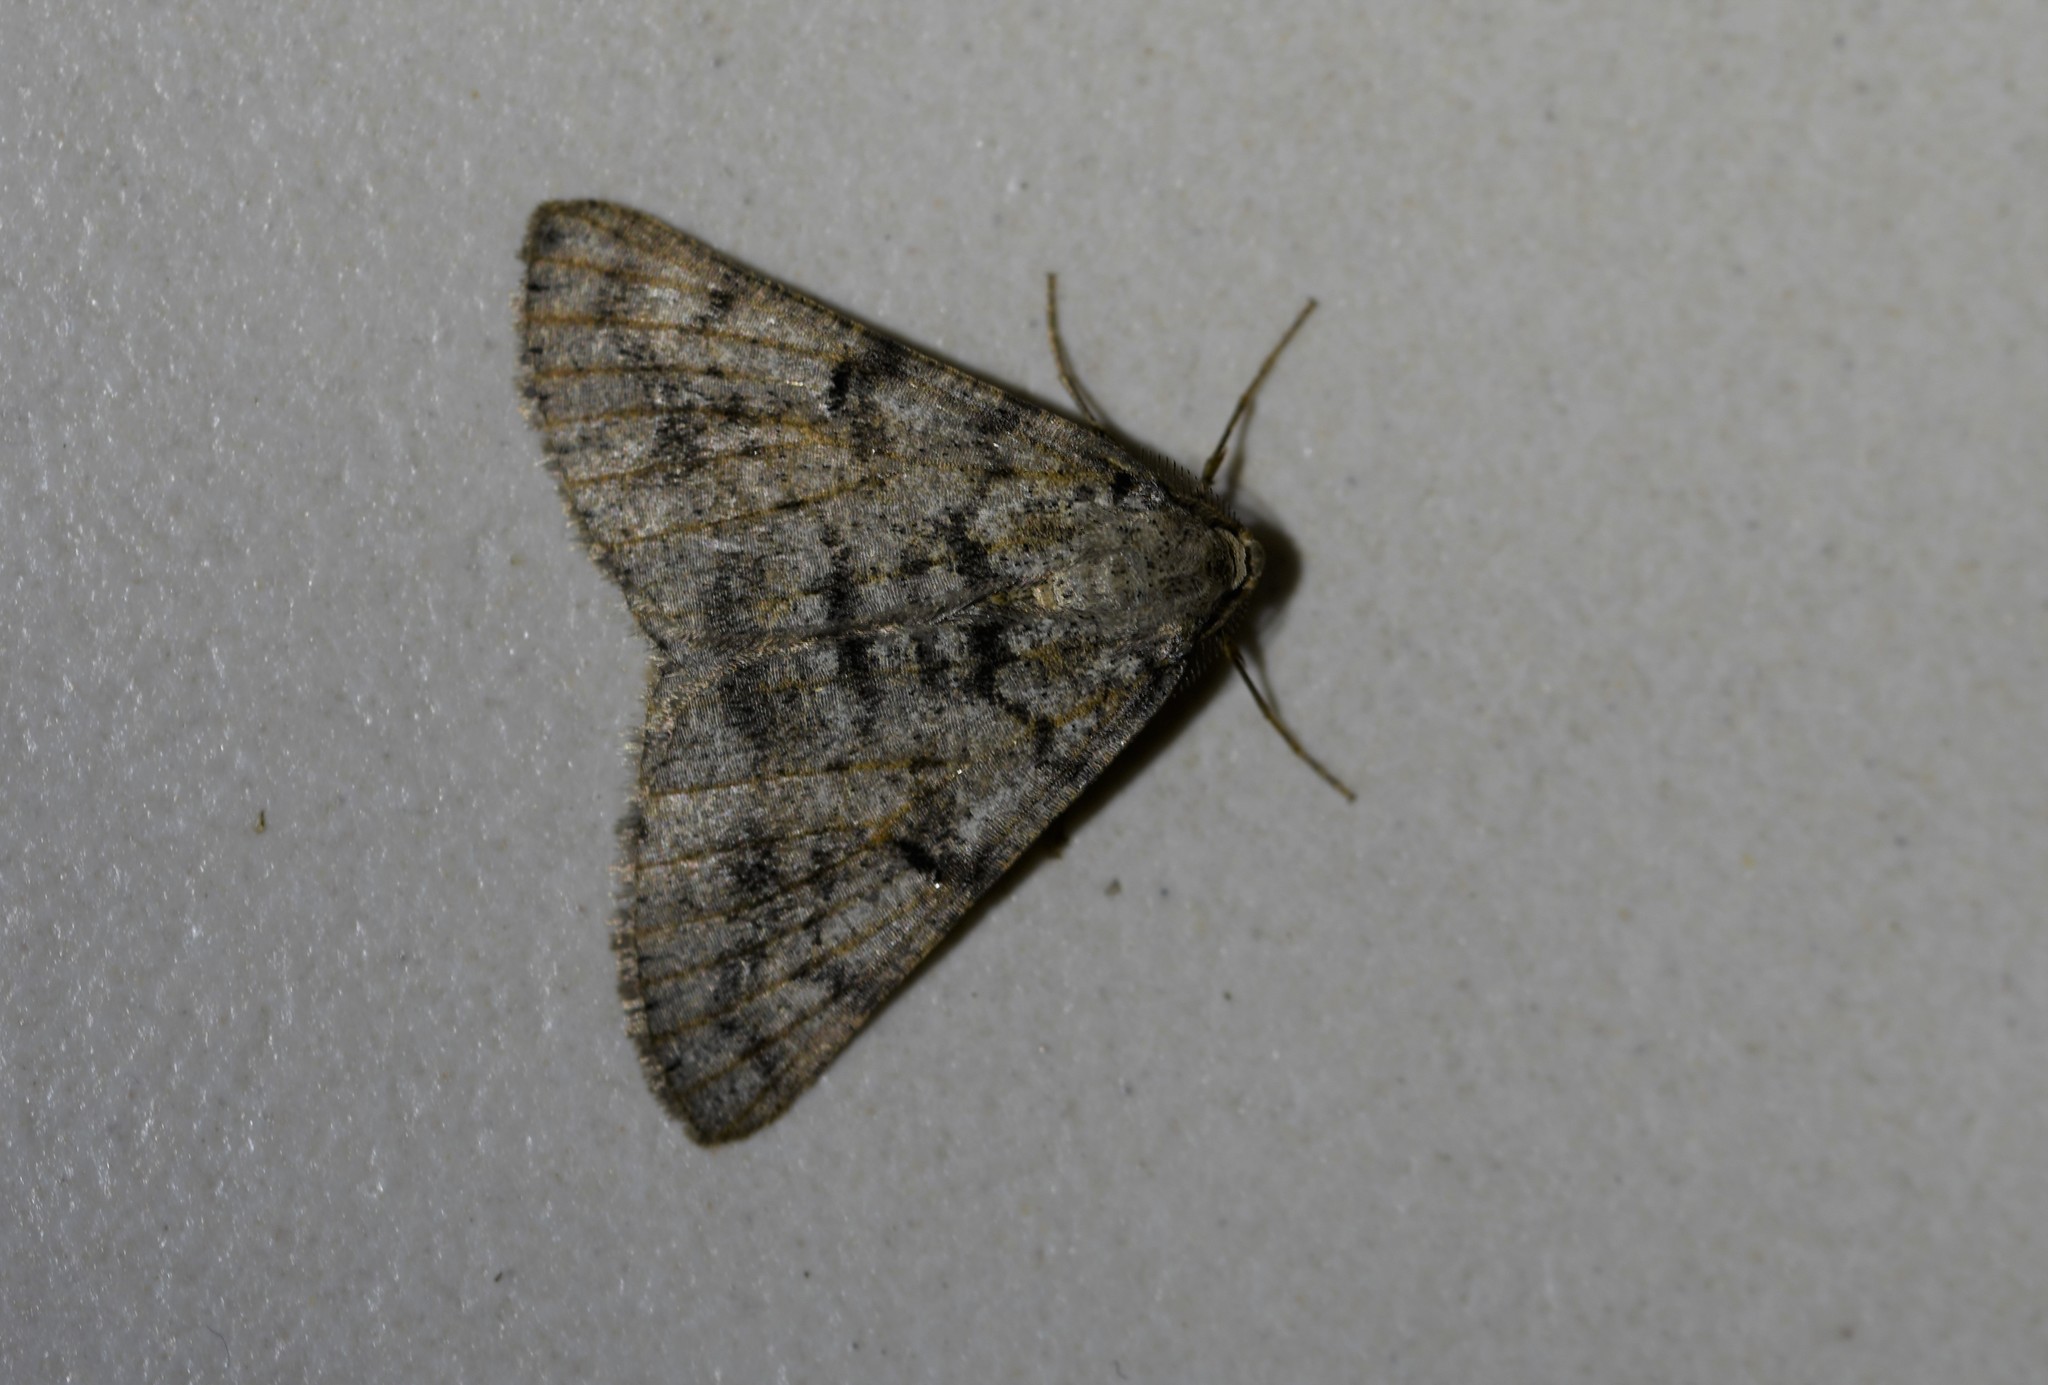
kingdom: Animalia
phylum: Arthropoda
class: Insecta
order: Lepidoptera
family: Geometridae
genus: Isturgia
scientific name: Isturgia miniosaria
